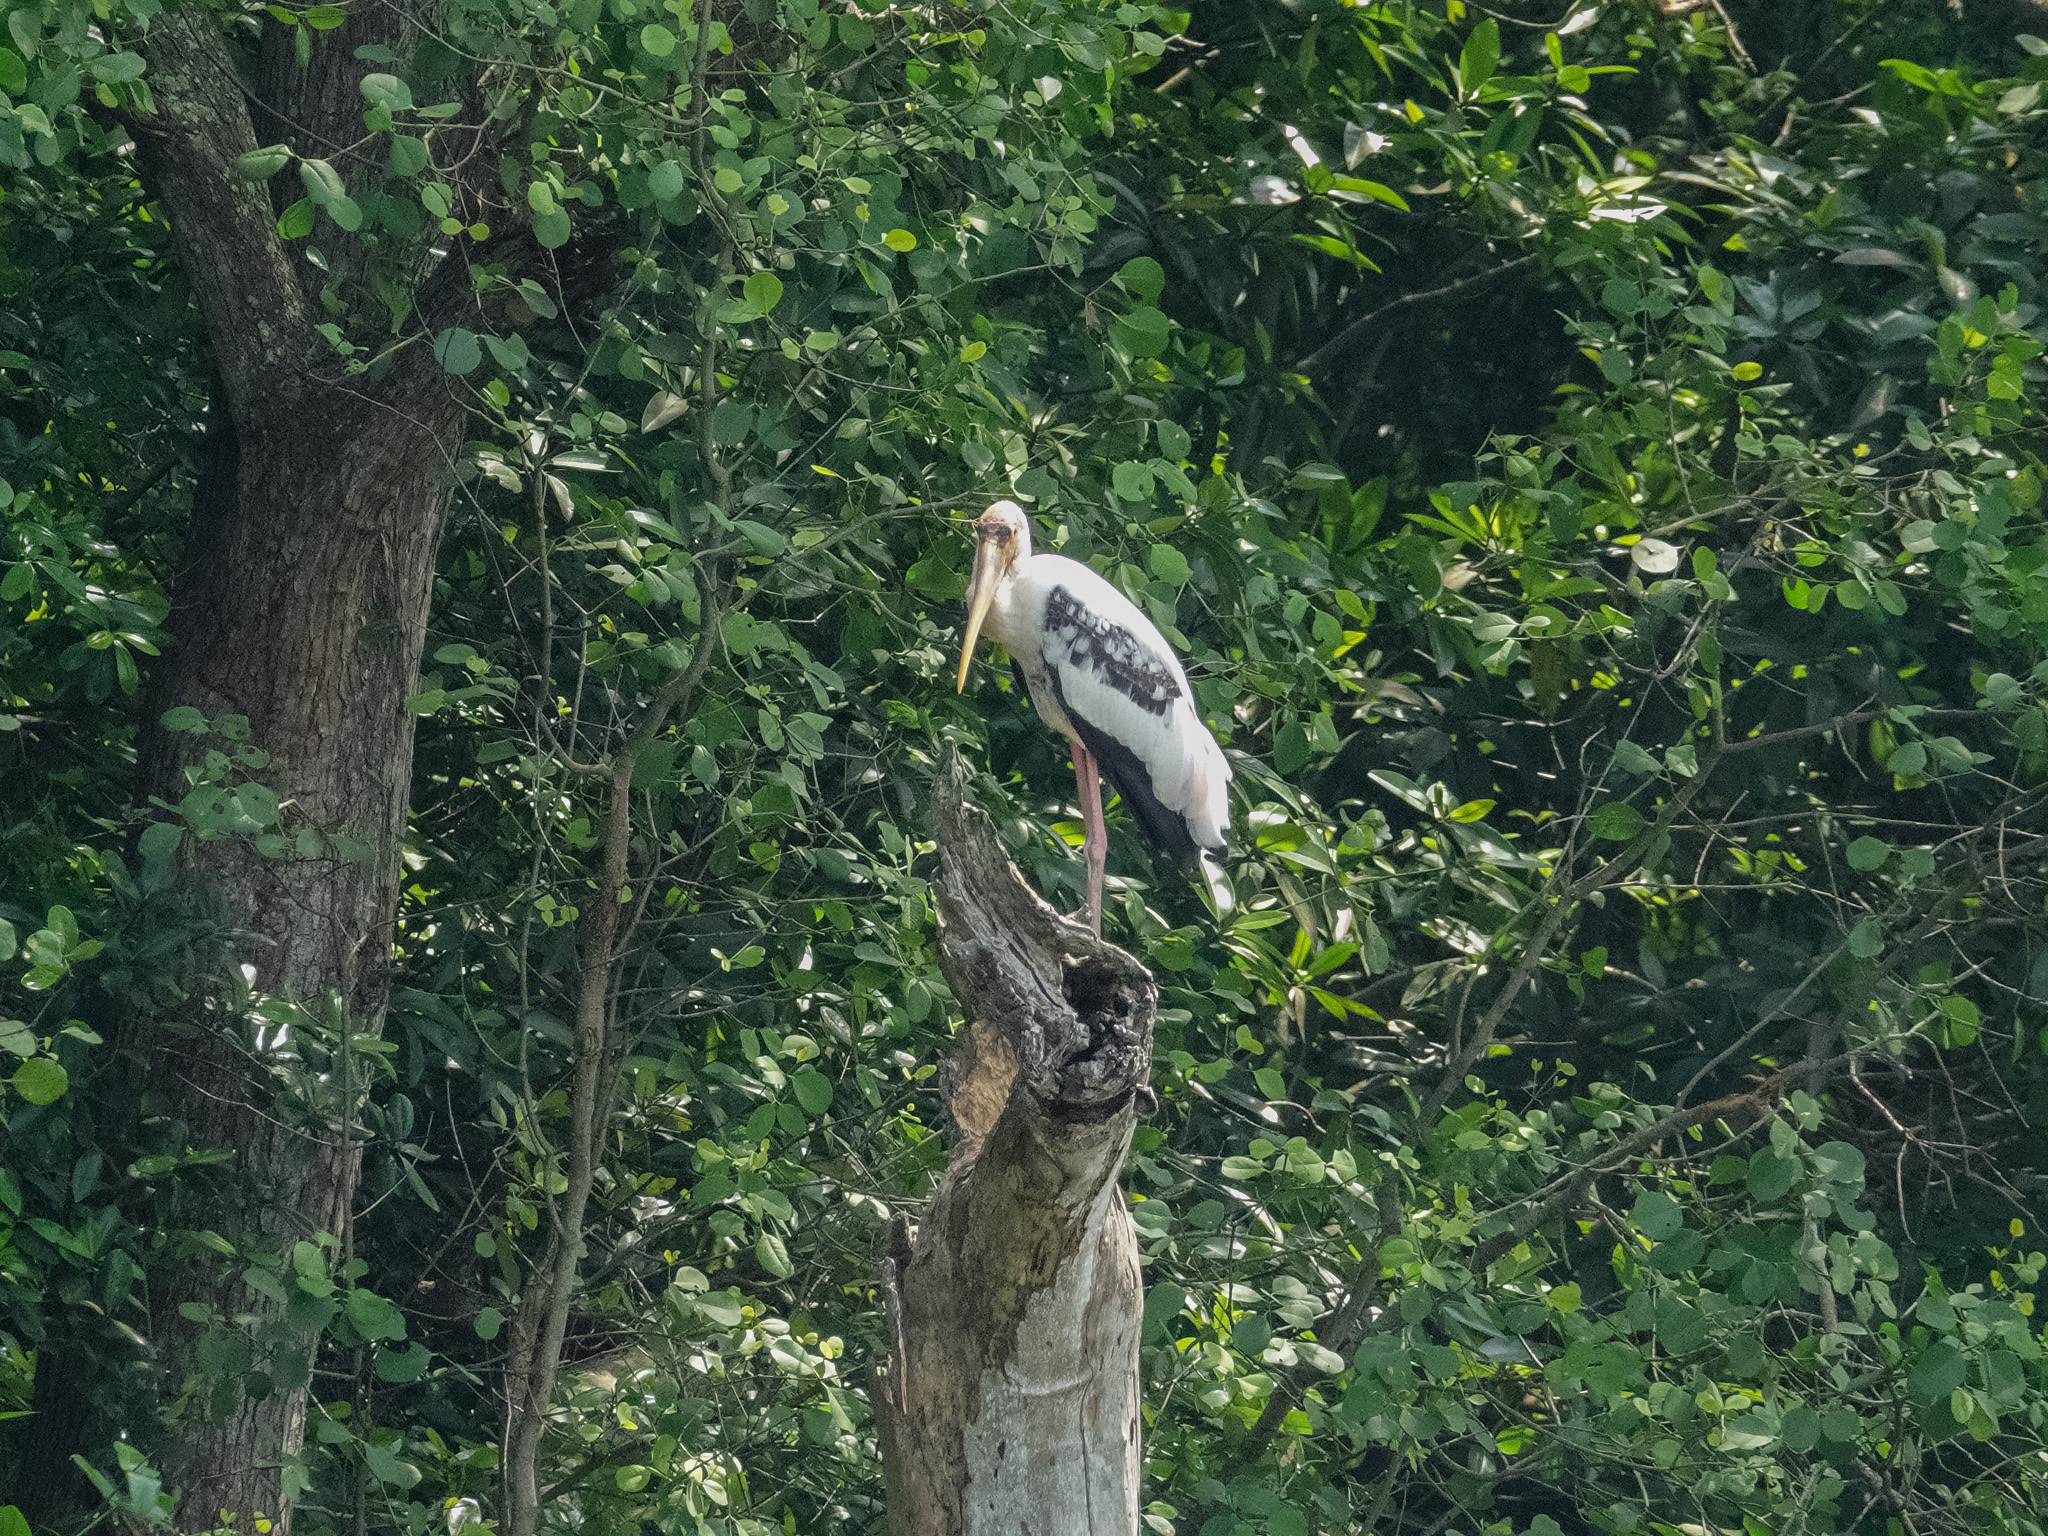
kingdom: Animalia
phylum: Chordata
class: Aves
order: Ciconiiformes
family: Ciconiidae
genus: Mycteria
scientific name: Mycteria leucocephala
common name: Painted stork
